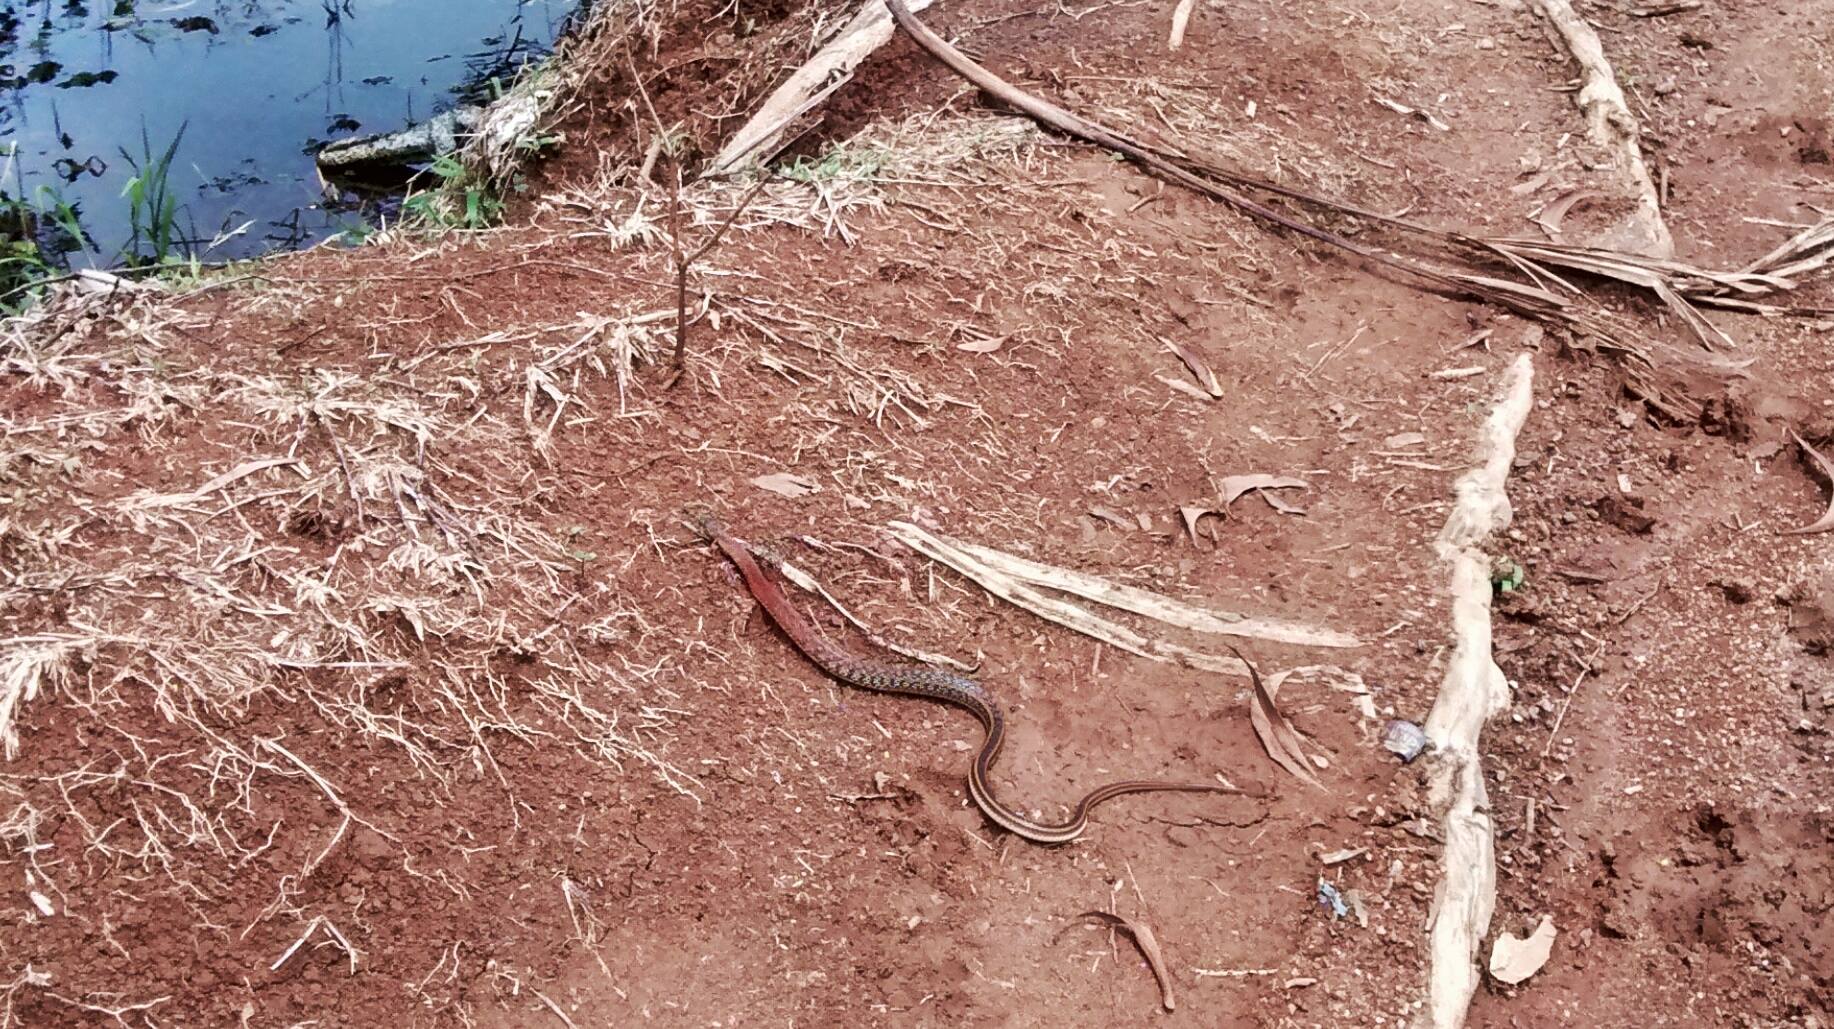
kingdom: Animalia
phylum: Chordata
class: Squamata
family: Colubridae
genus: Amphiesma
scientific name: Amphiesma stolatum
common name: Buff striped keelback
